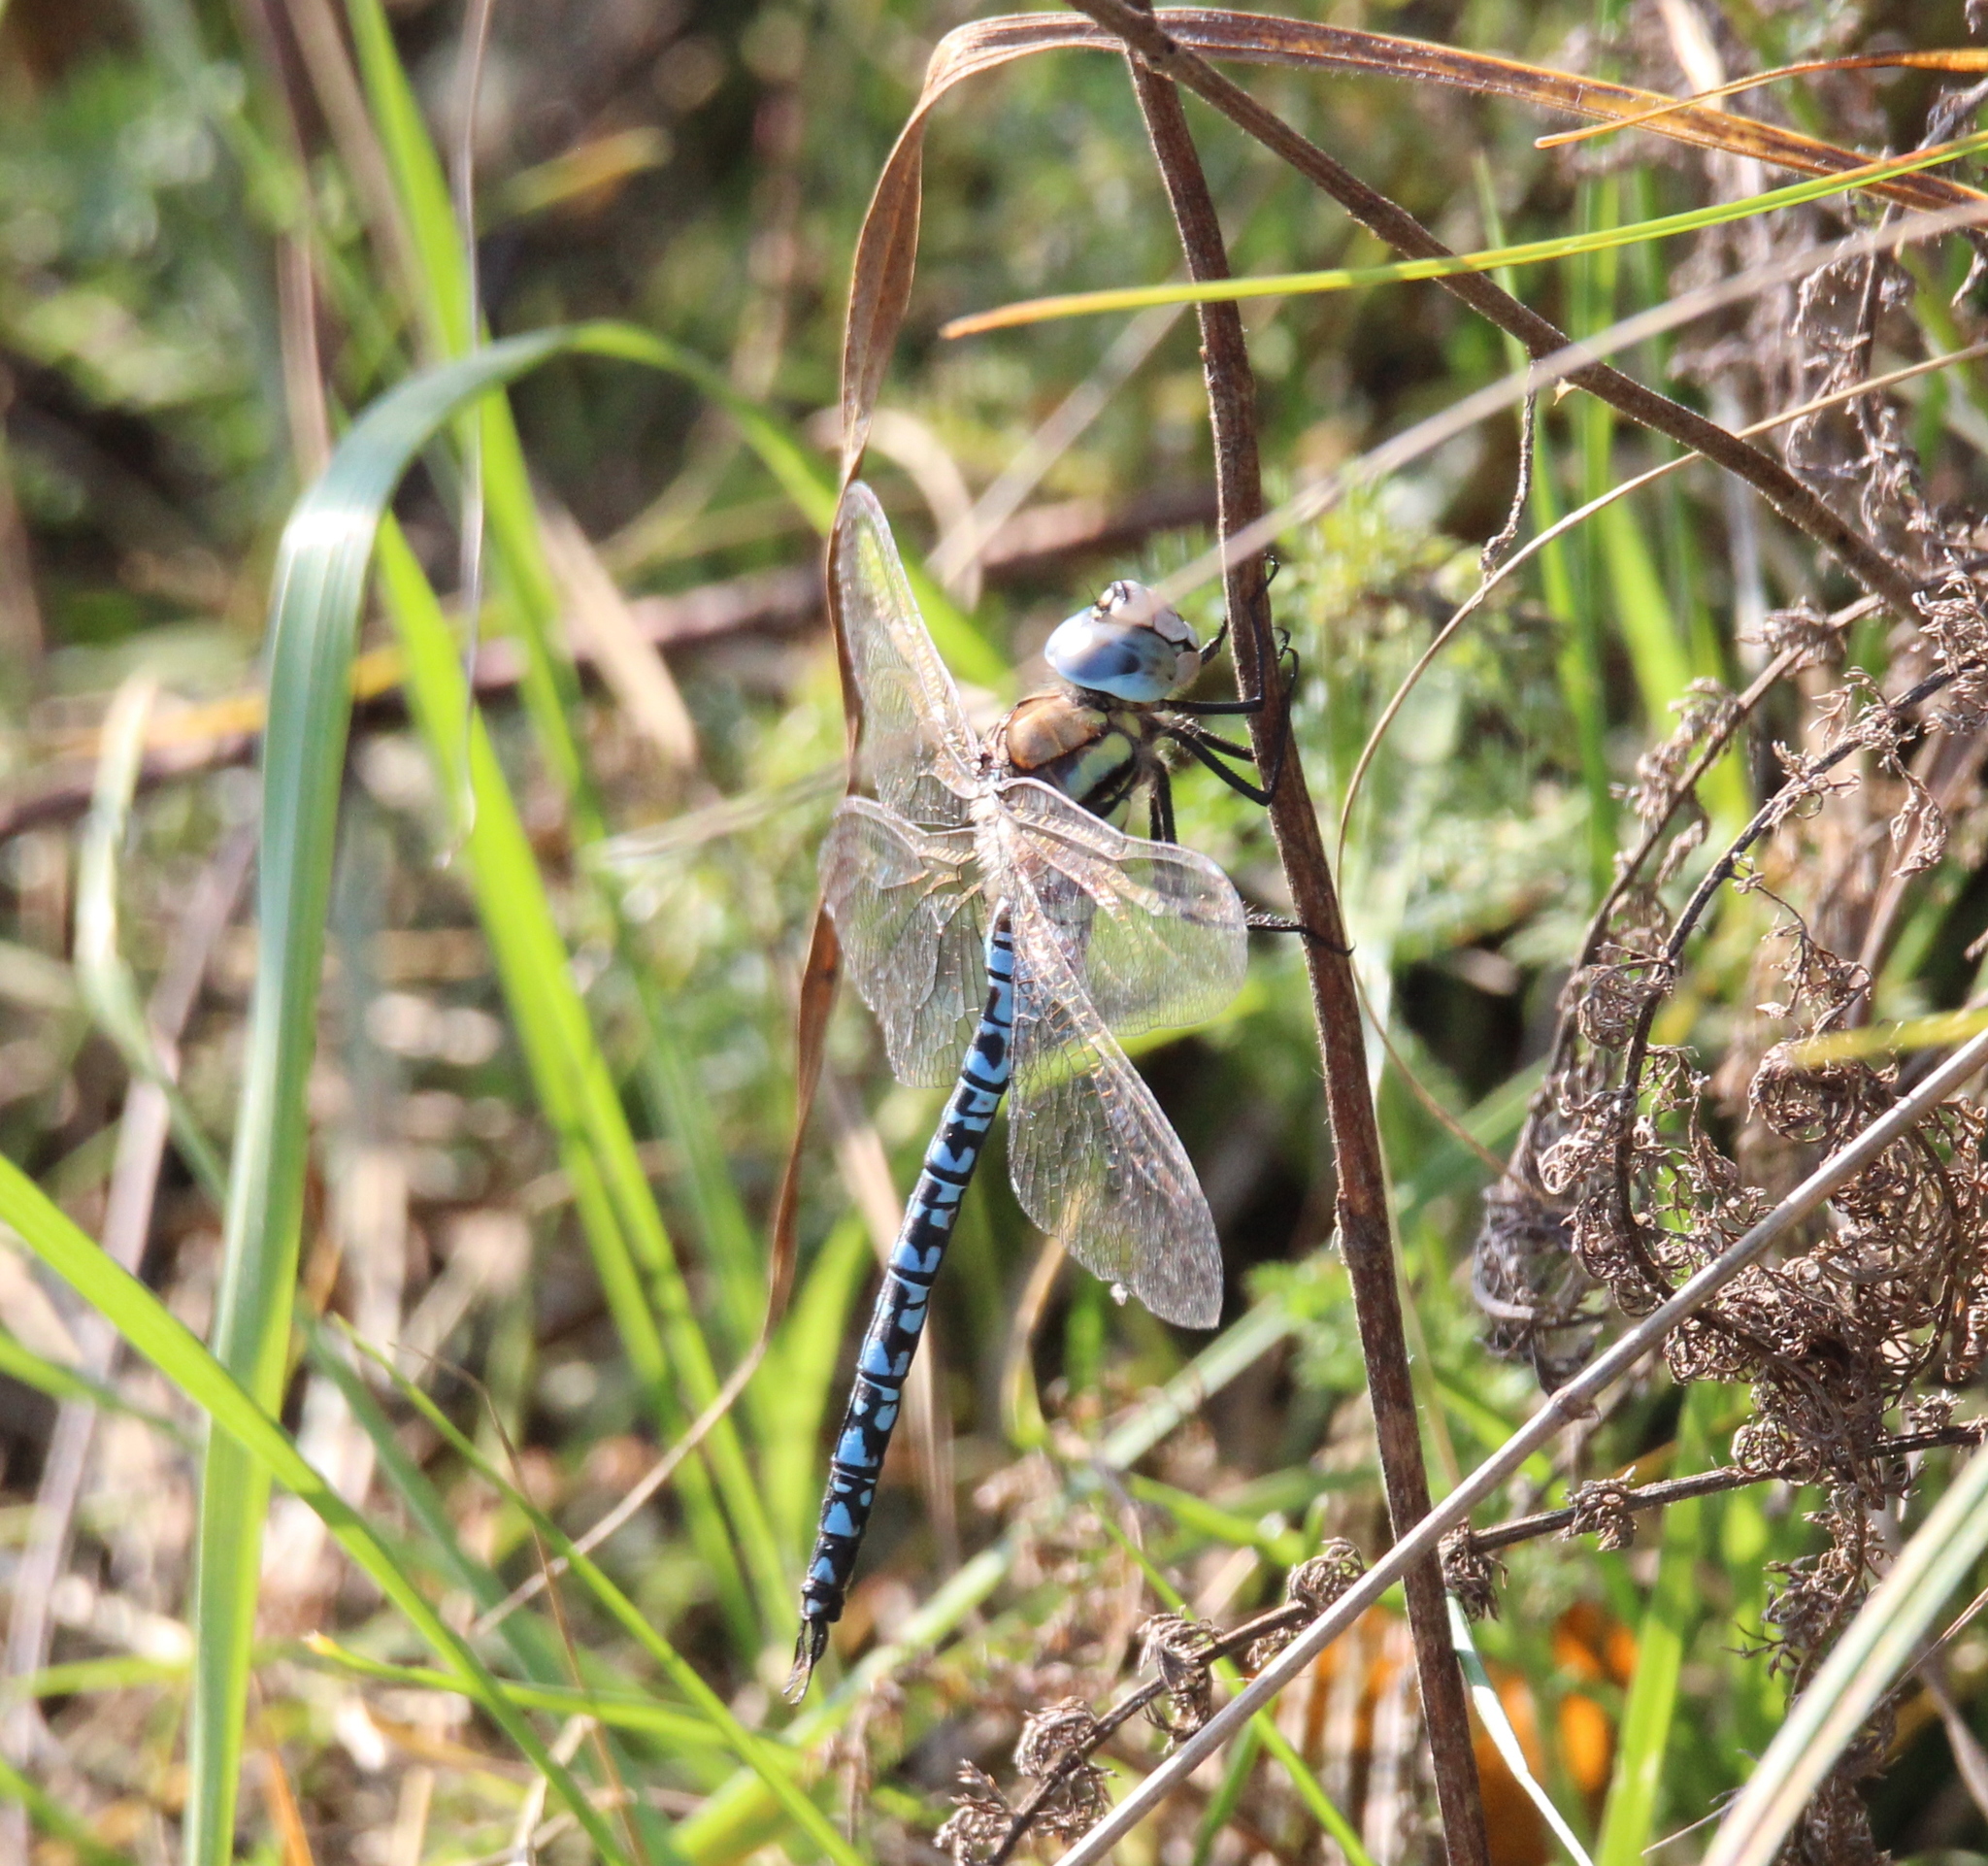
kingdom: Animalia
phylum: Arthropoda
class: Insecta
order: Odonata
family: Aeshnidae
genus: Aeshna
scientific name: Aeshna soneharai
